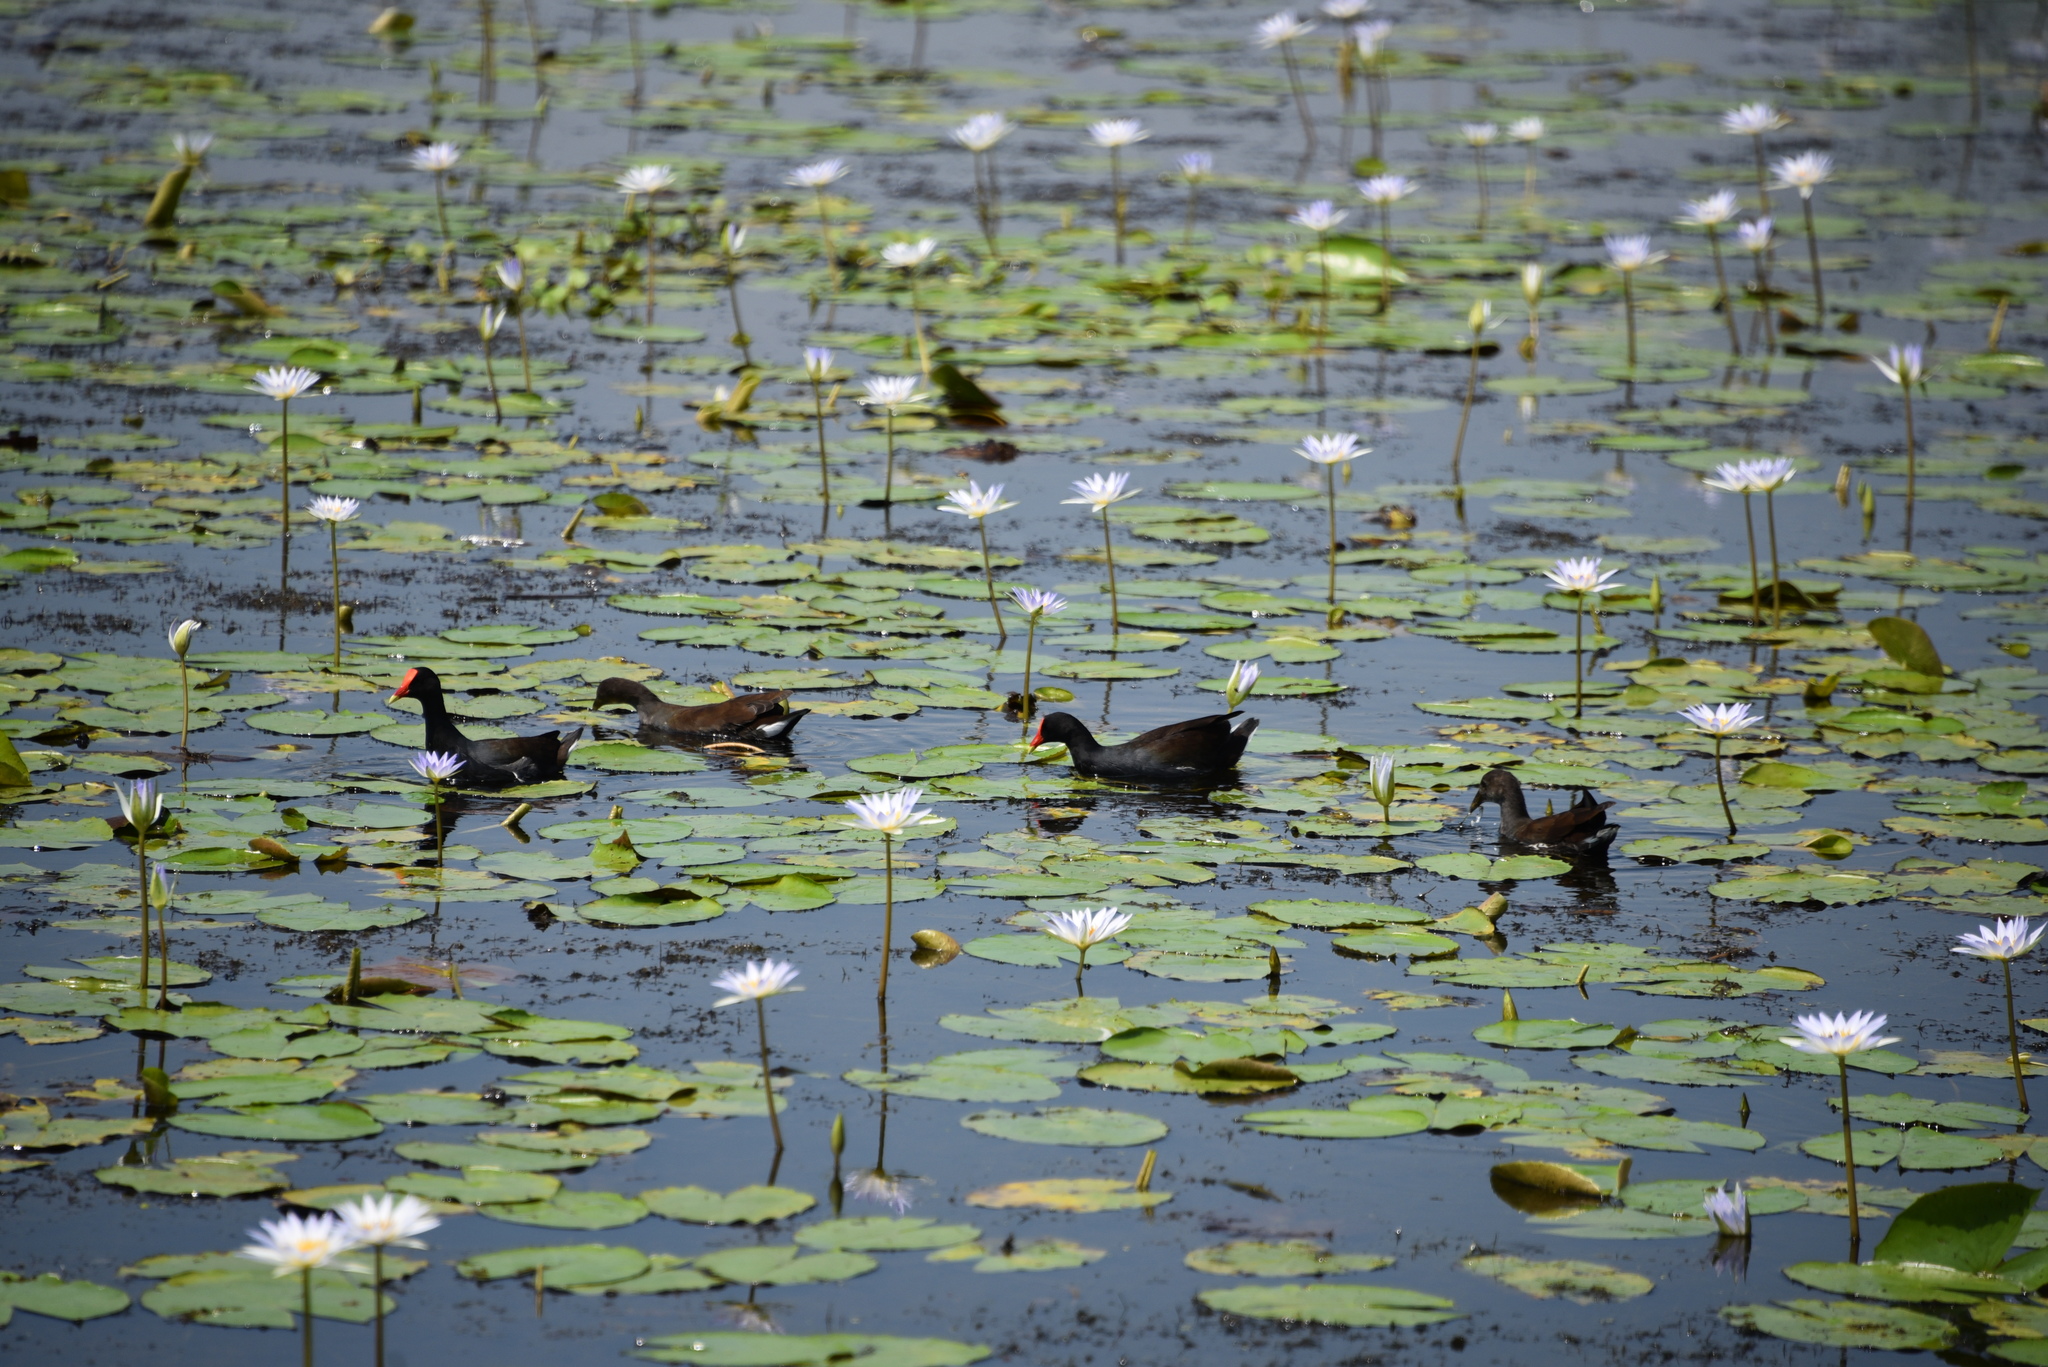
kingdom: Animalia
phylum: Chordata
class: Aves
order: Gruiformes
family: Rallidae
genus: Gallinula
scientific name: Gallinula chloropus
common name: Common moorhen
